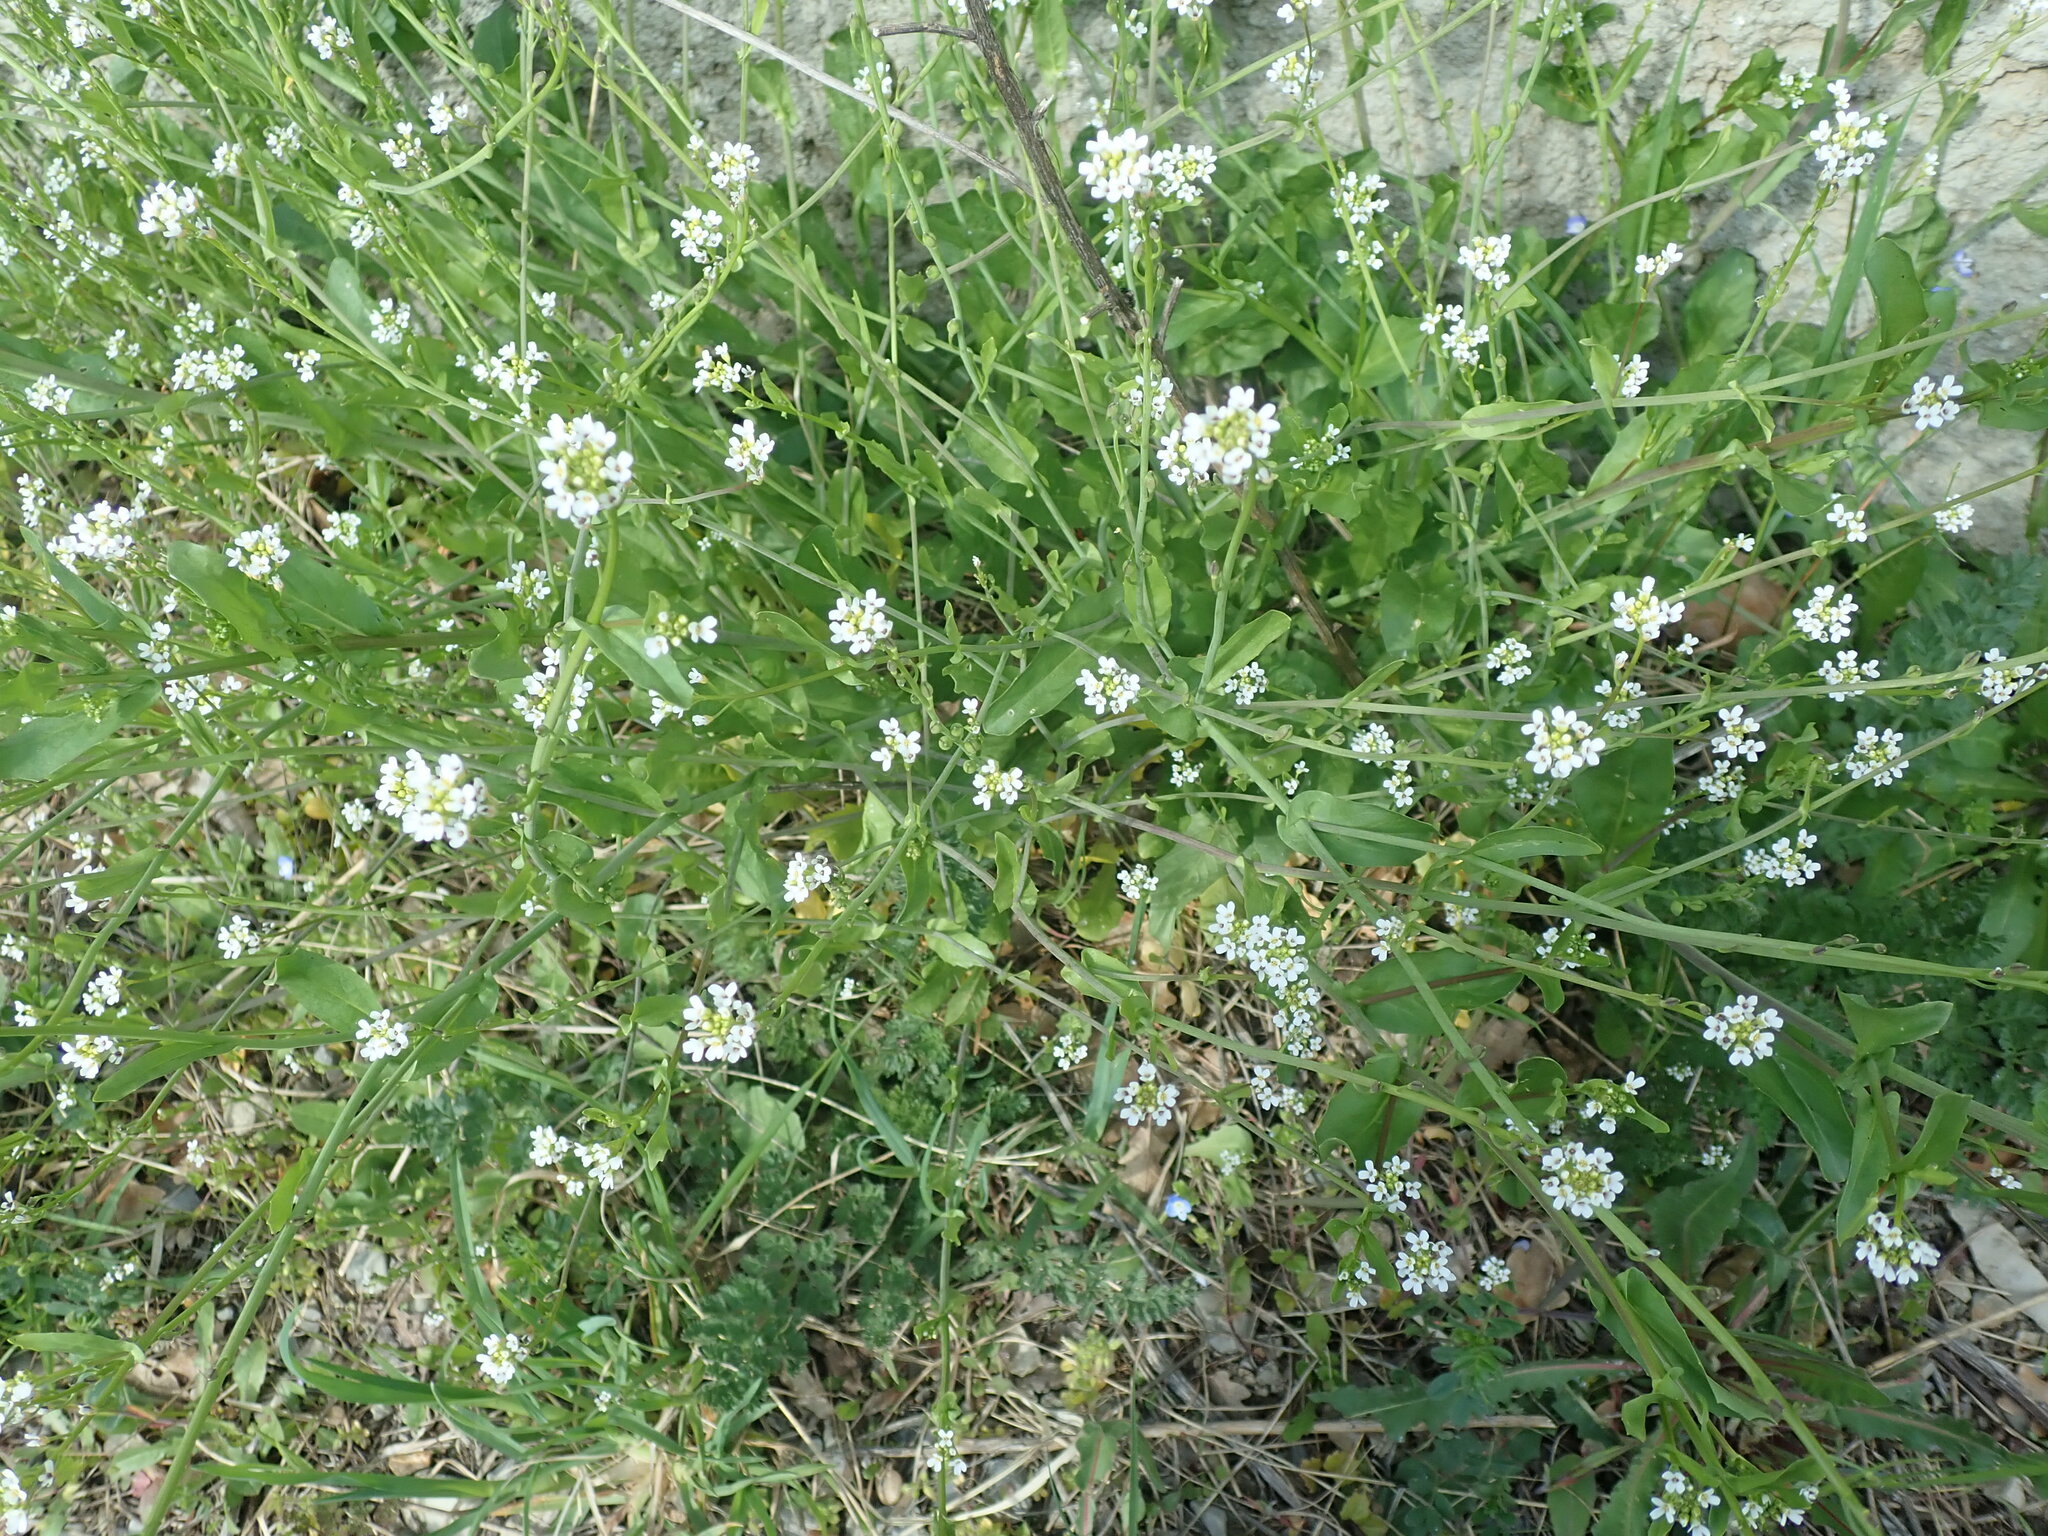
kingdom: Plantae
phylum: Tracheophyta
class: Magnoliopsida
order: Brassicales
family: Brassicaceae
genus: Calepina
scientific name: Calepina irregularis
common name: White ballmustard
